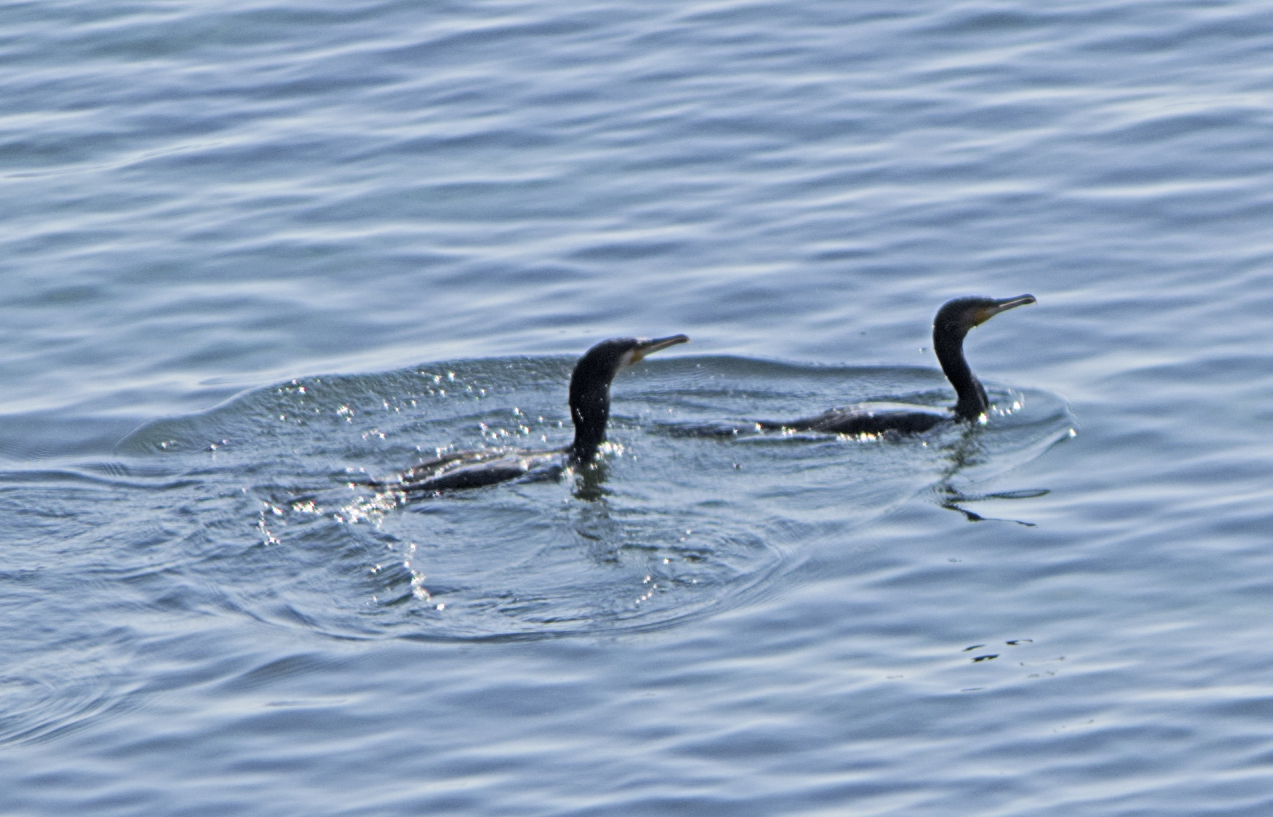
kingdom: Animalia
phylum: Chordata
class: Aves
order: Suliformes
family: Phalacrocoracidae
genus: Phalacrocorax
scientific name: Phalacrocorax carbo
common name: Great cormorant
